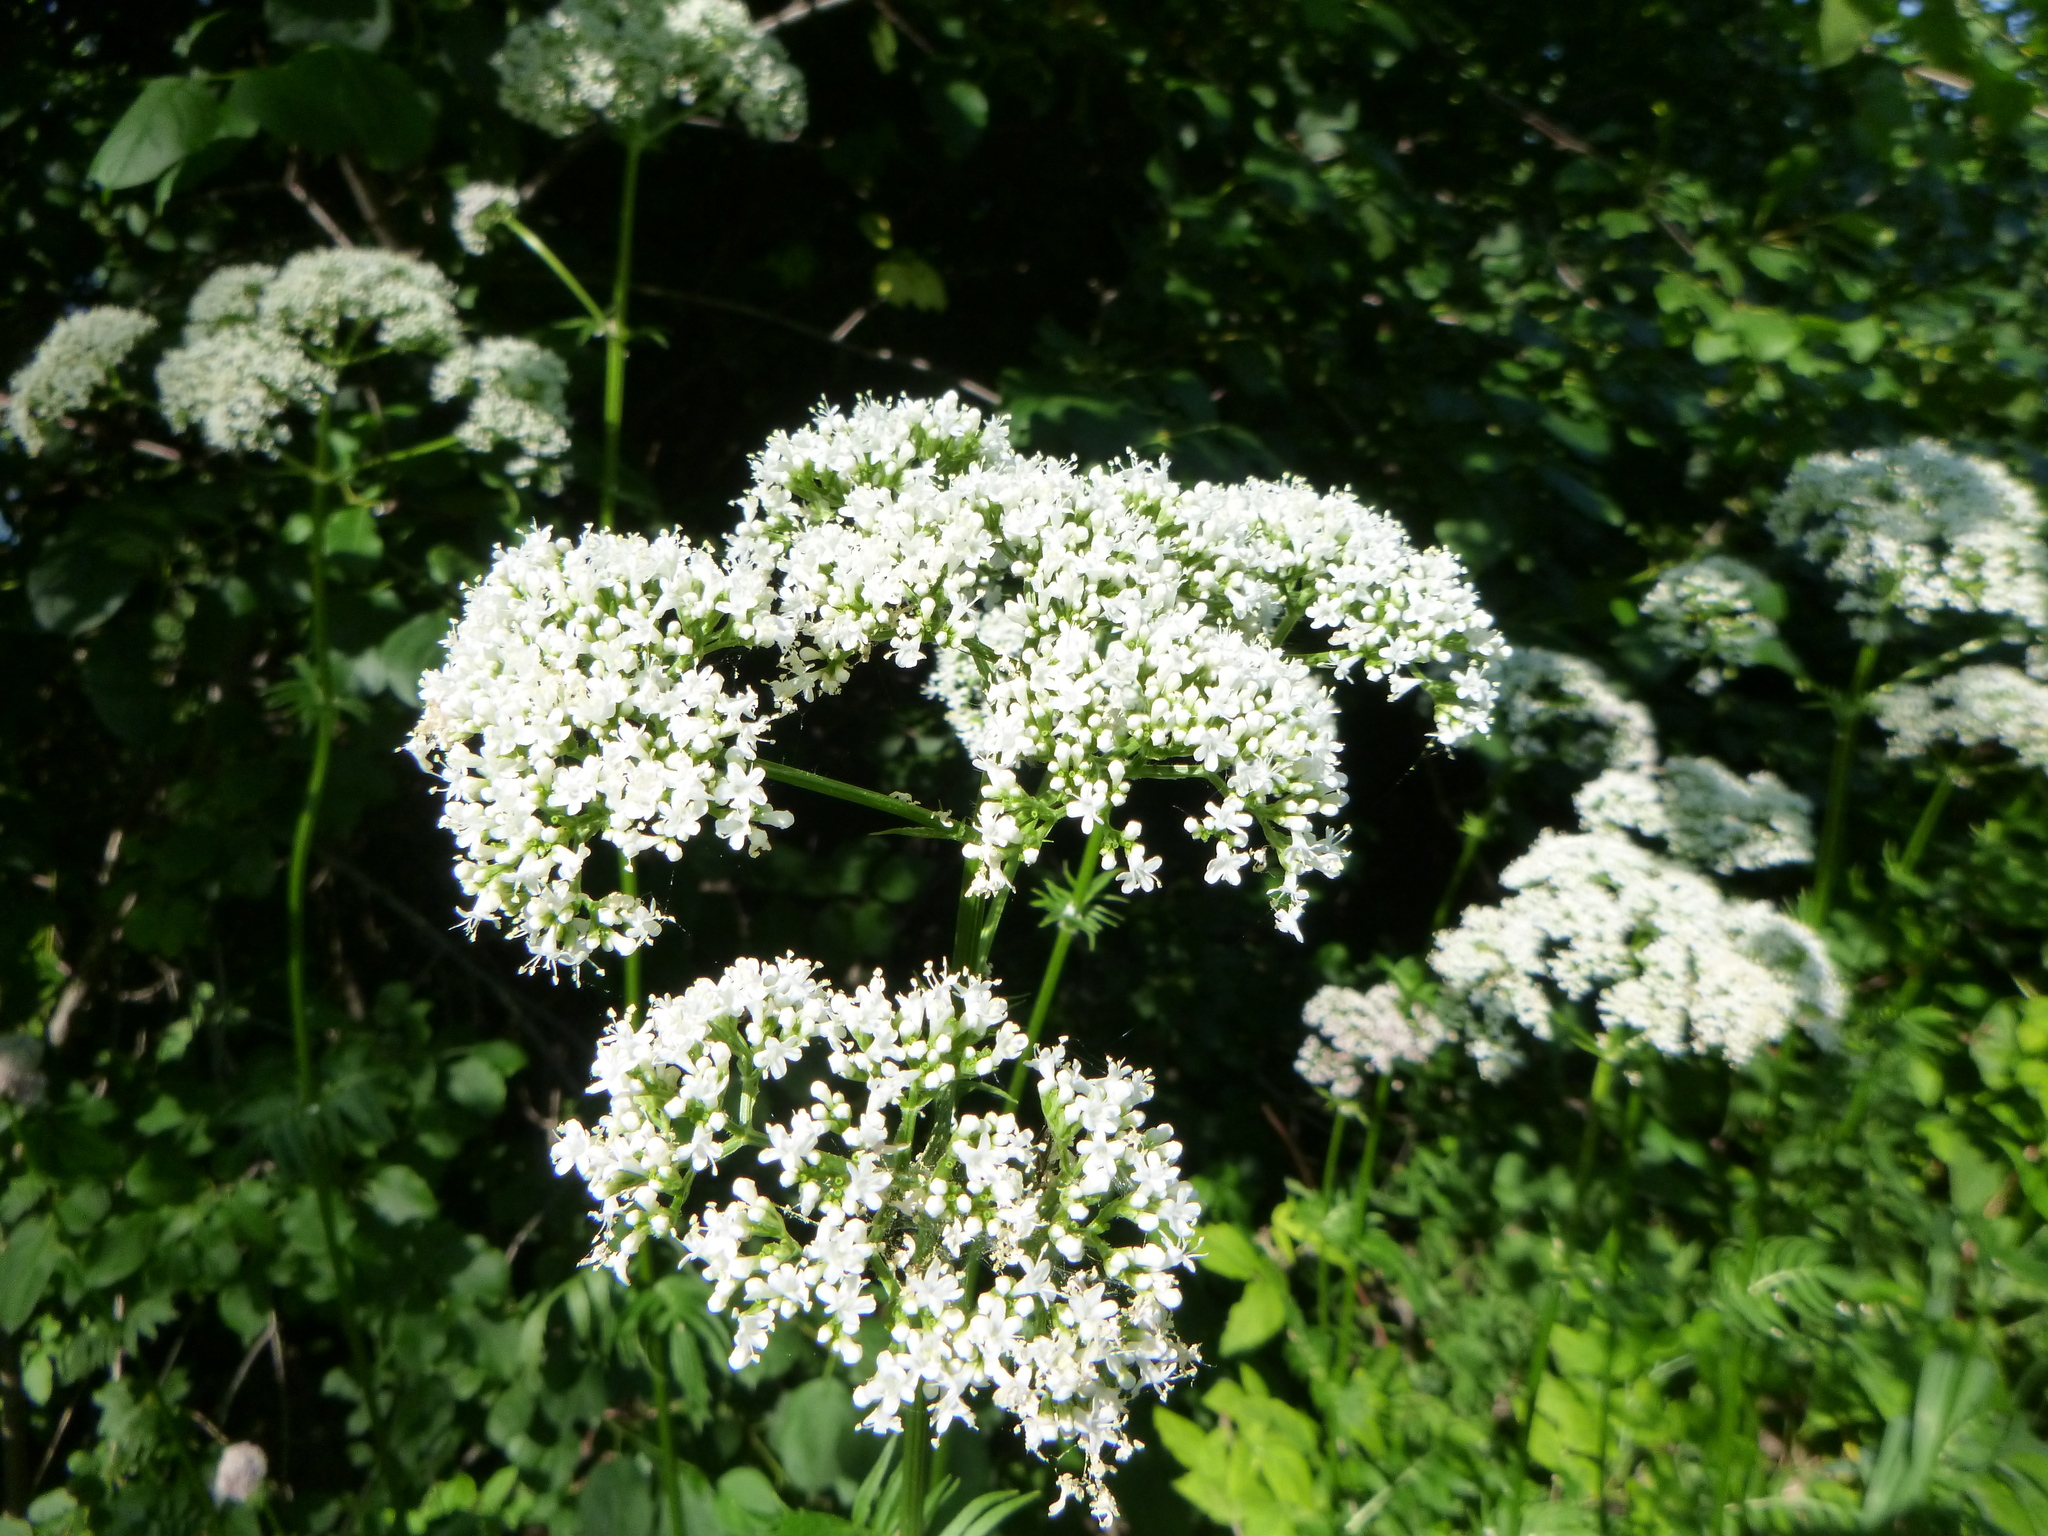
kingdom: Plantae
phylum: Tracheophyta
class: Magnoliopsida
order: Dipsacales
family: Caprifoliaceae
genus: Valeriana
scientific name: Valeriana officinalis
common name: Common valerian
